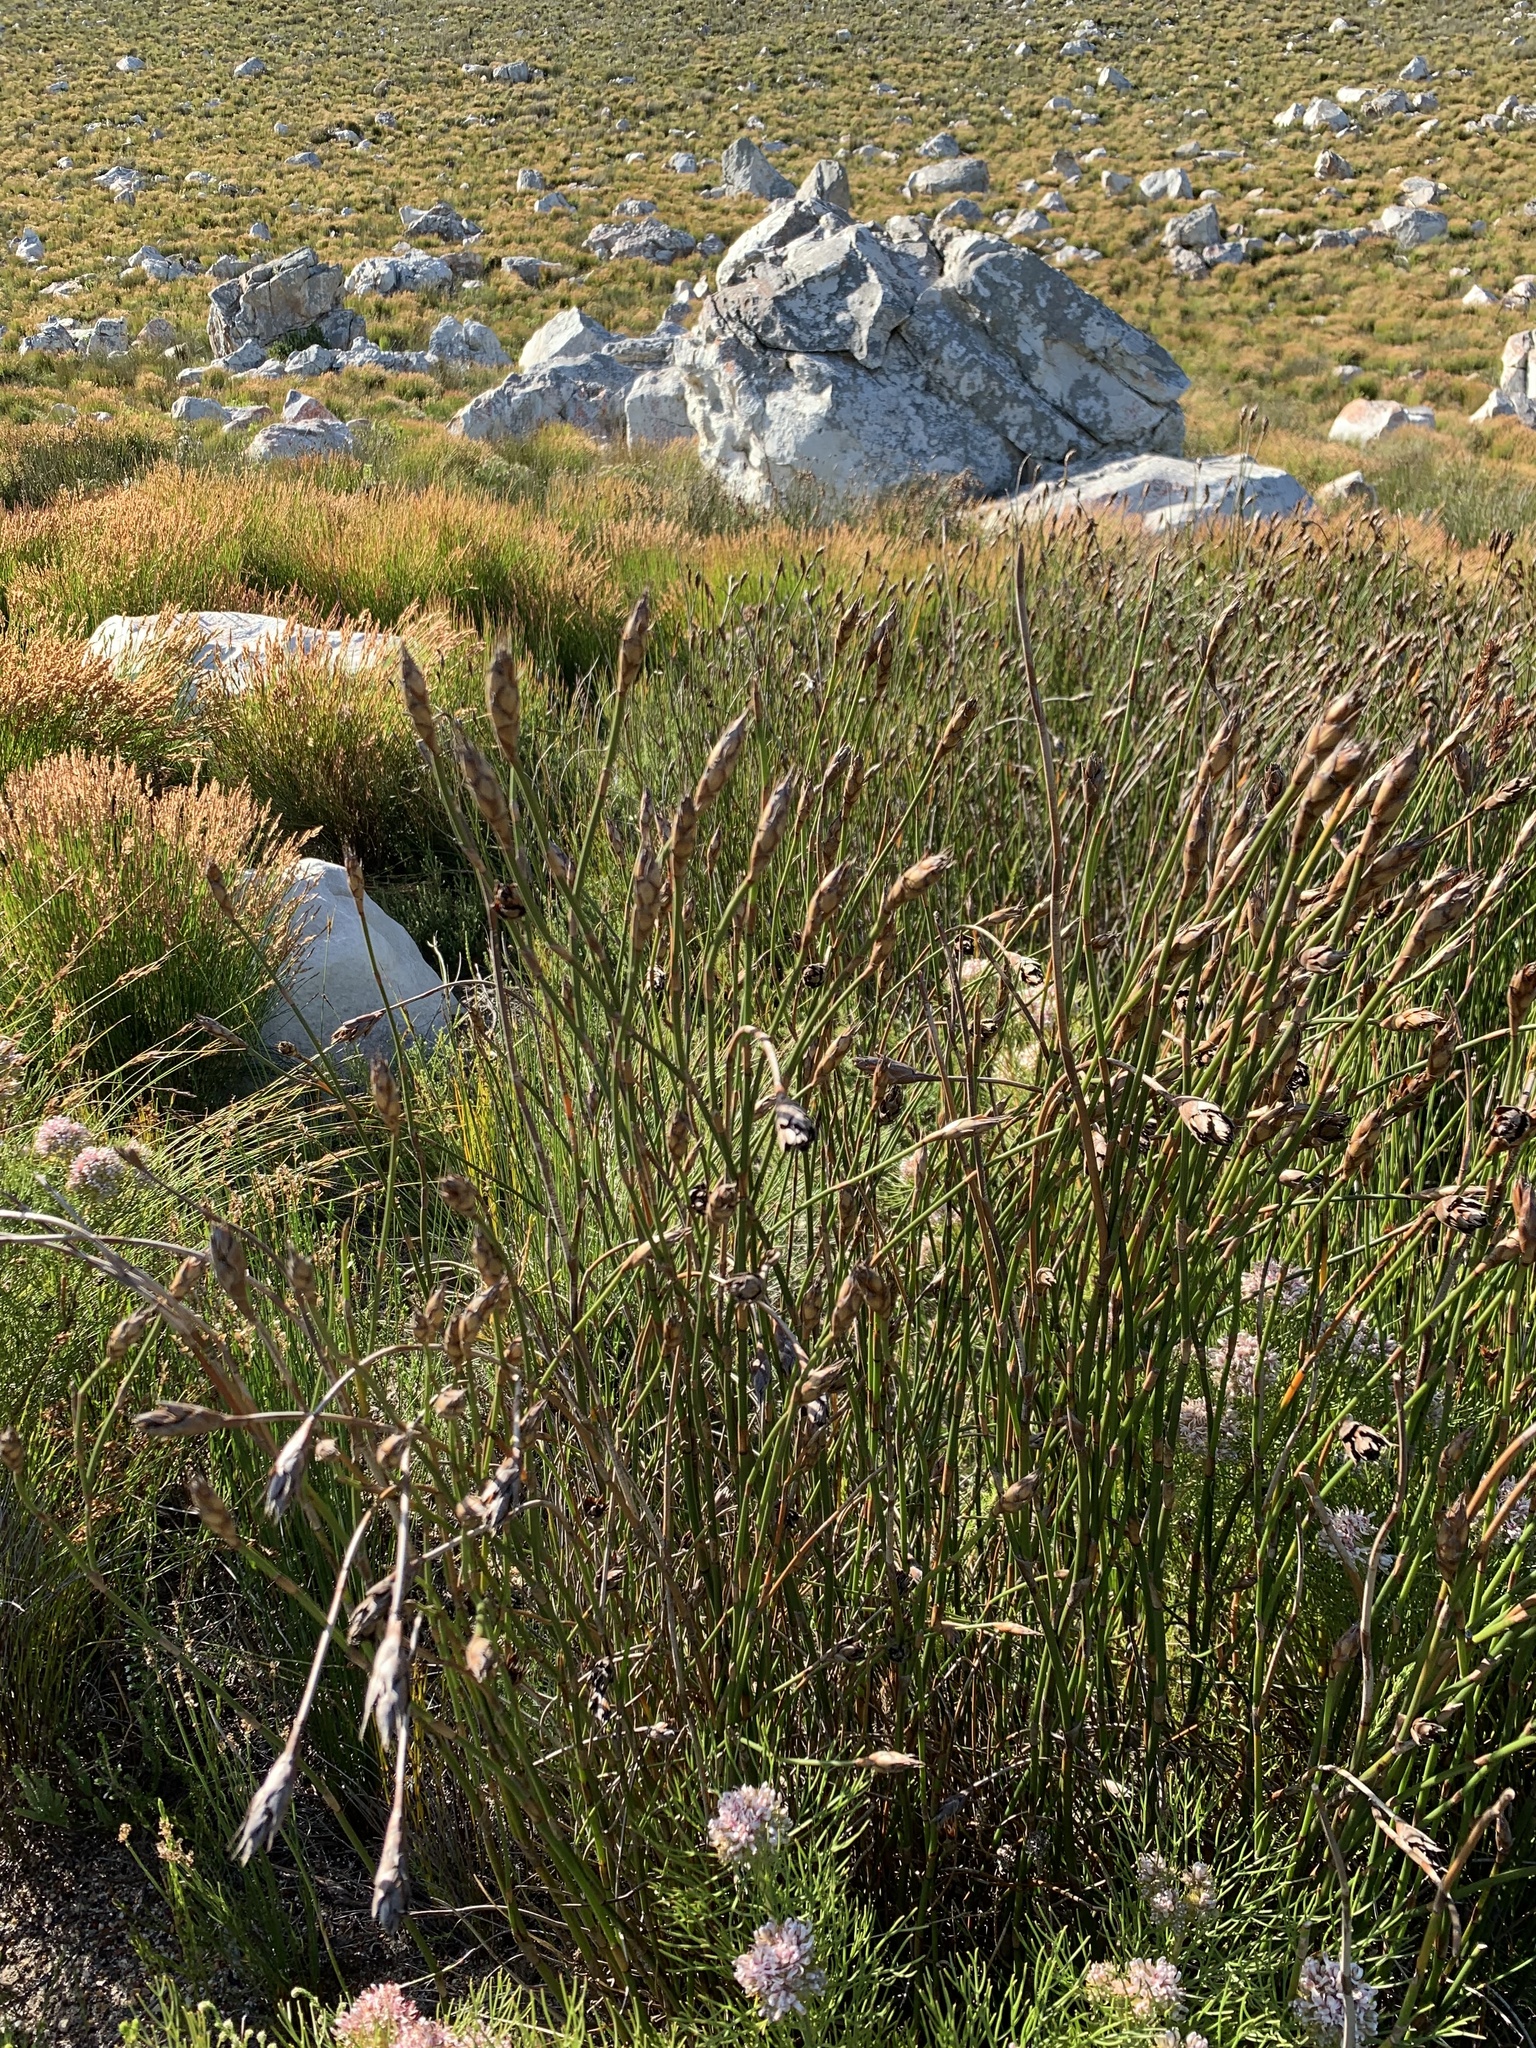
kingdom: Plantae
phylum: Tracheophyta
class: Liliopsida
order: Poales
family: Restionaceae
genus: Restio
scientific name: Restio egregius
